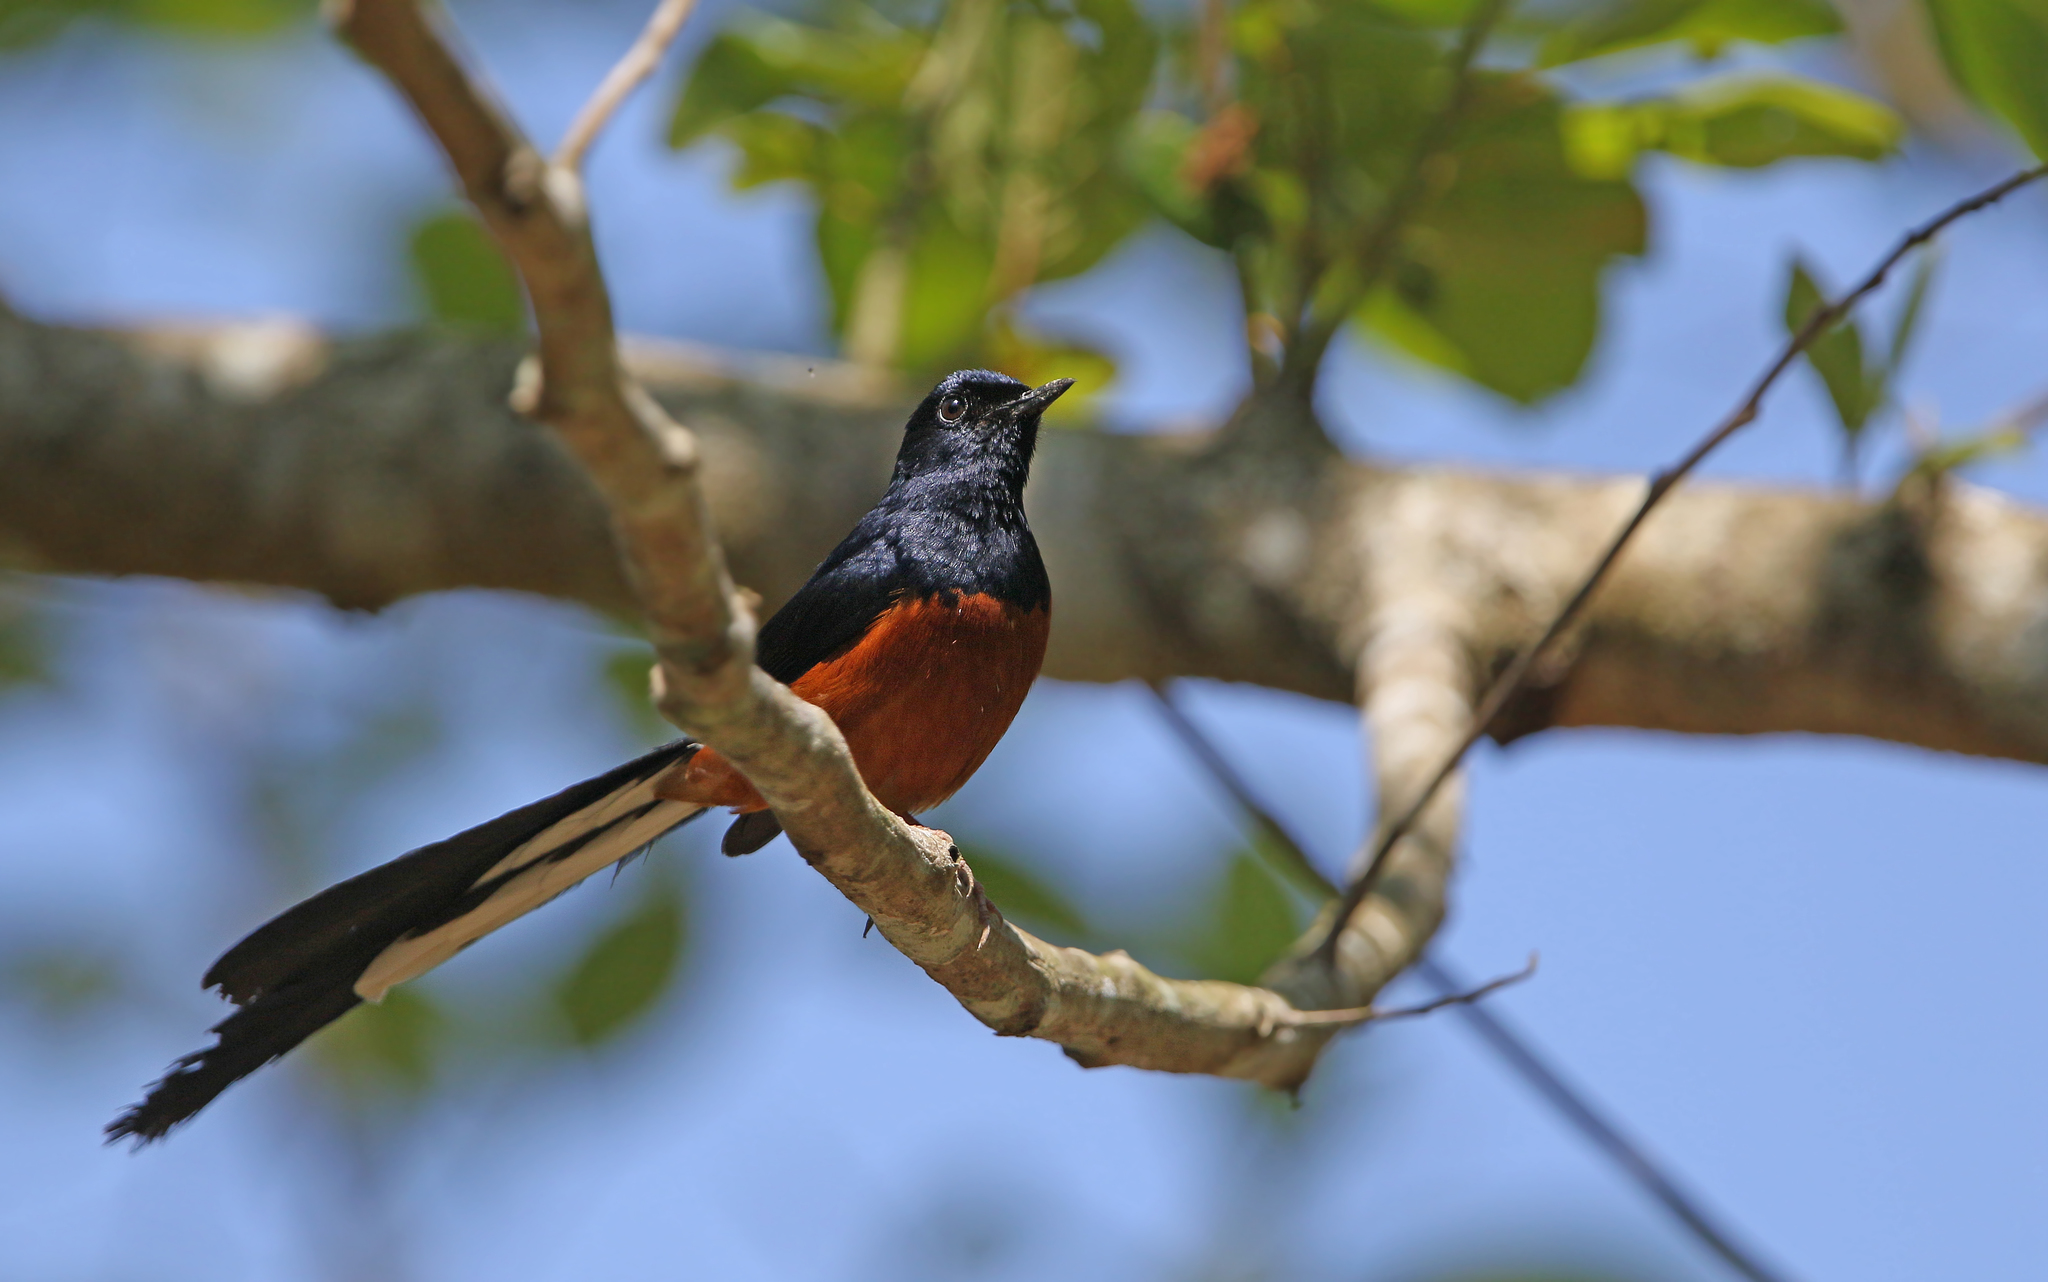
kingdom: Animalia
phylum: Chordata
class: Aves
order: Passeriformes
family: Muscicapidae
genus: Copsychus
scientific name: Copsychus malabaricus
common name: White-rumped shama
